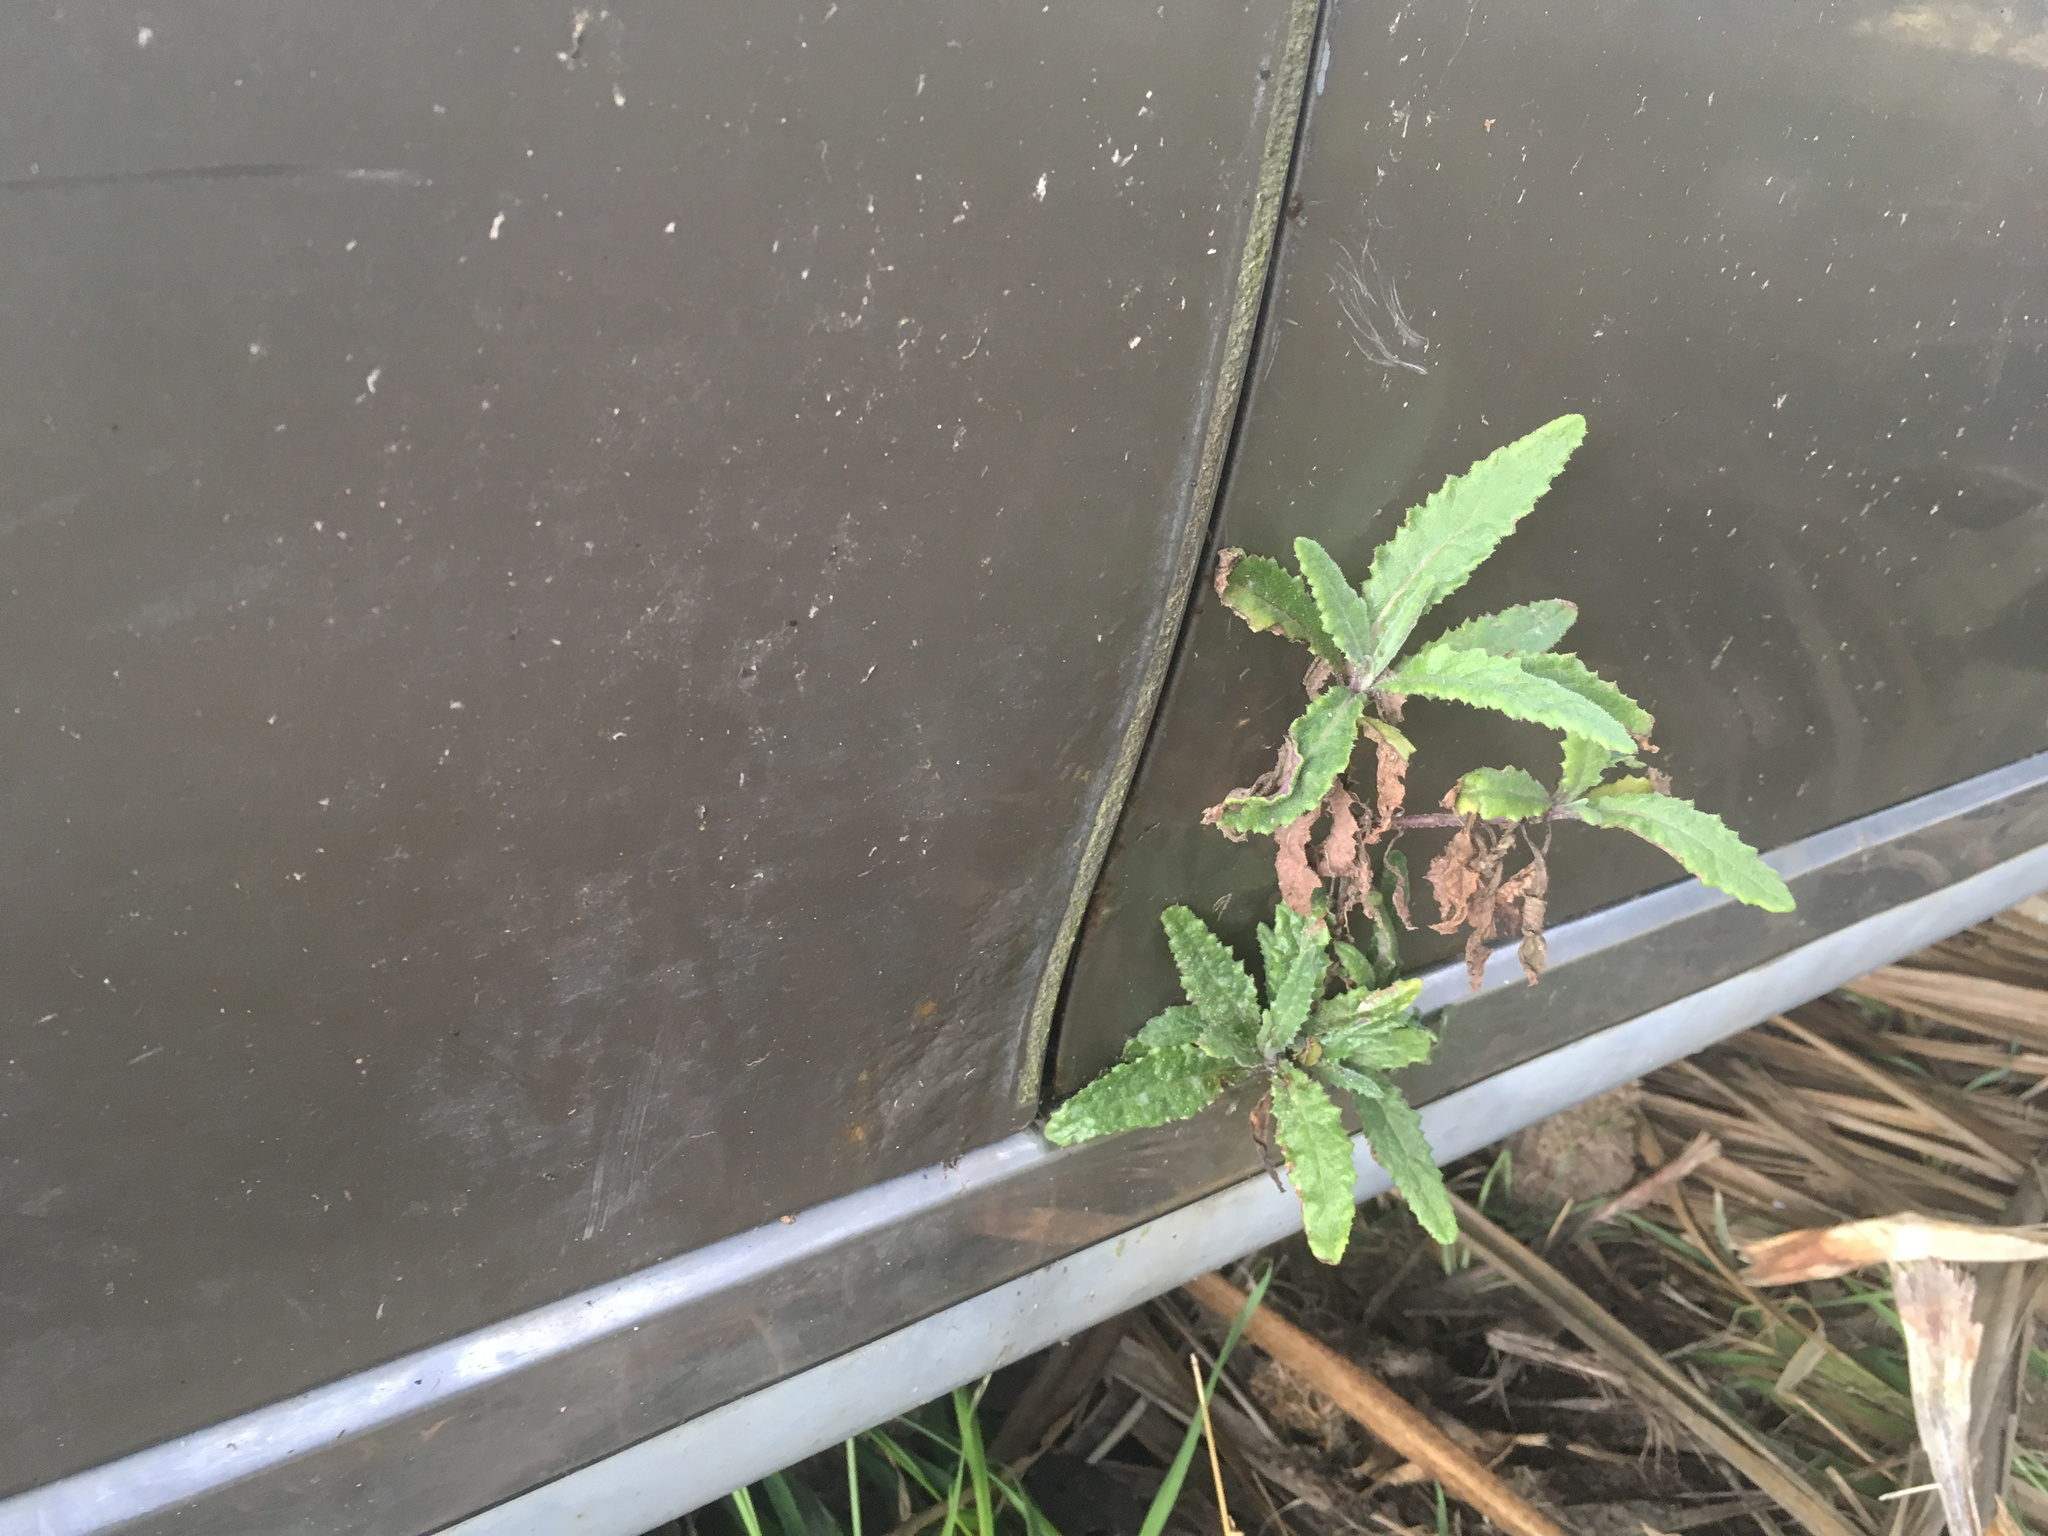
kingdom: Plantae
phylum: Tracheophyta
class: Magnoliopsida
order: Asterales
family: Asteraceae
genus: Senecio
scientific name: Senecio minimus
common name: Toothed fireweed
